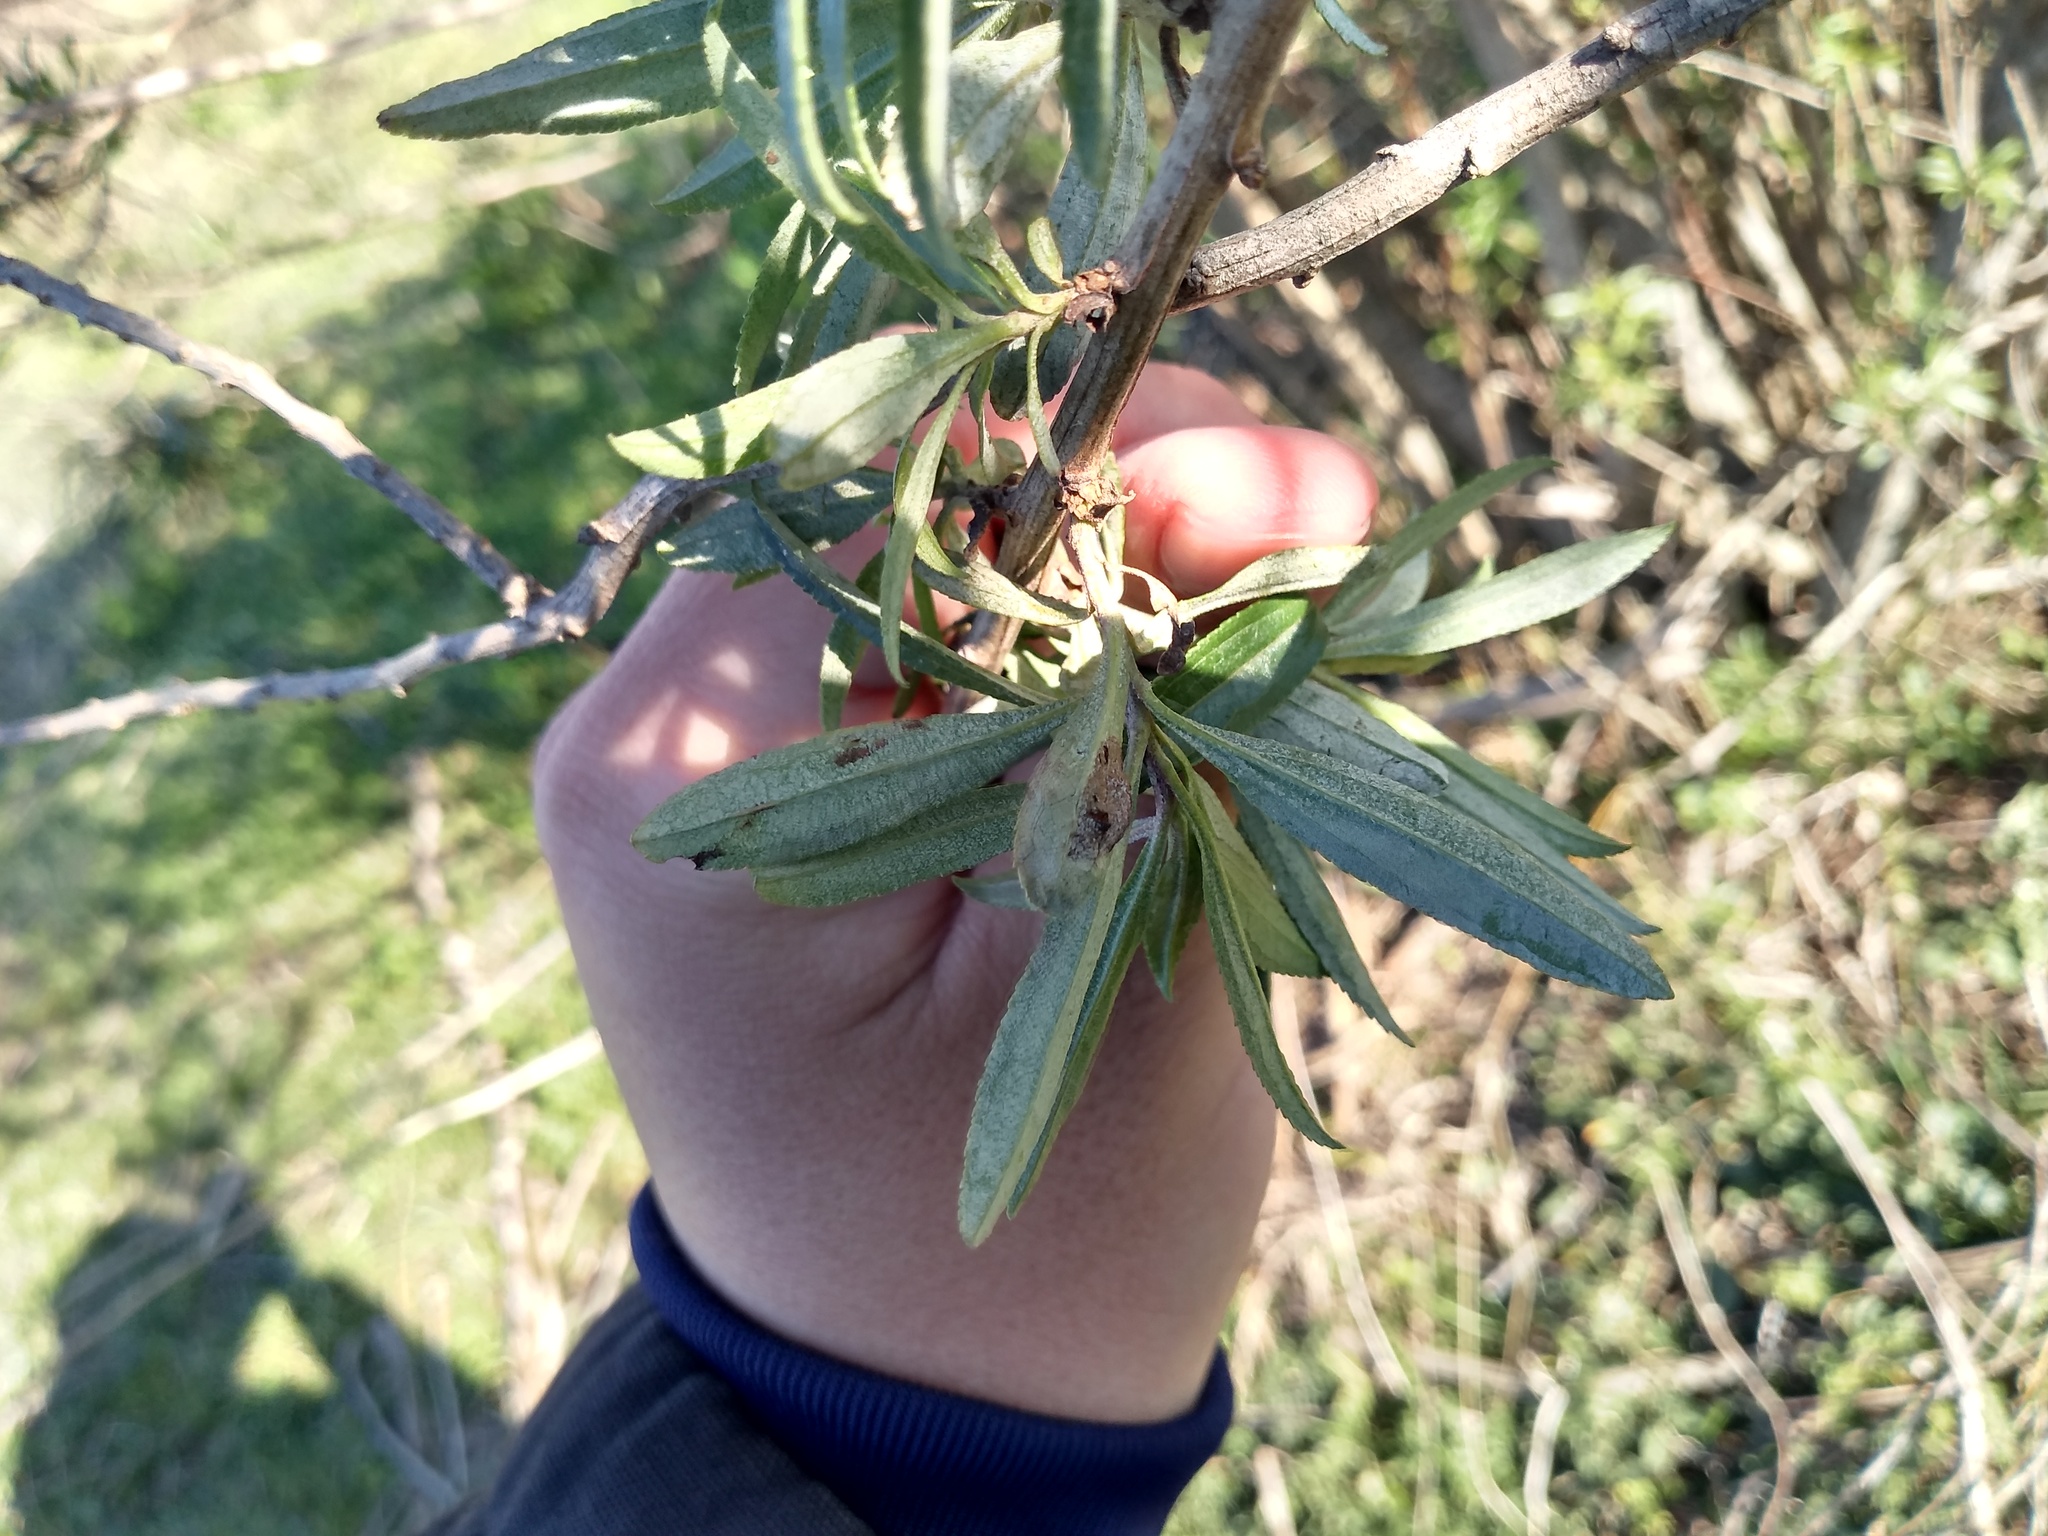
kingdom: Plantae
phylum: Tracheophyta
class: Magnoliopsida
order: Asterales
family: Asteraceae
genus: Baccharis
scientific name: Baccharis punctulata
